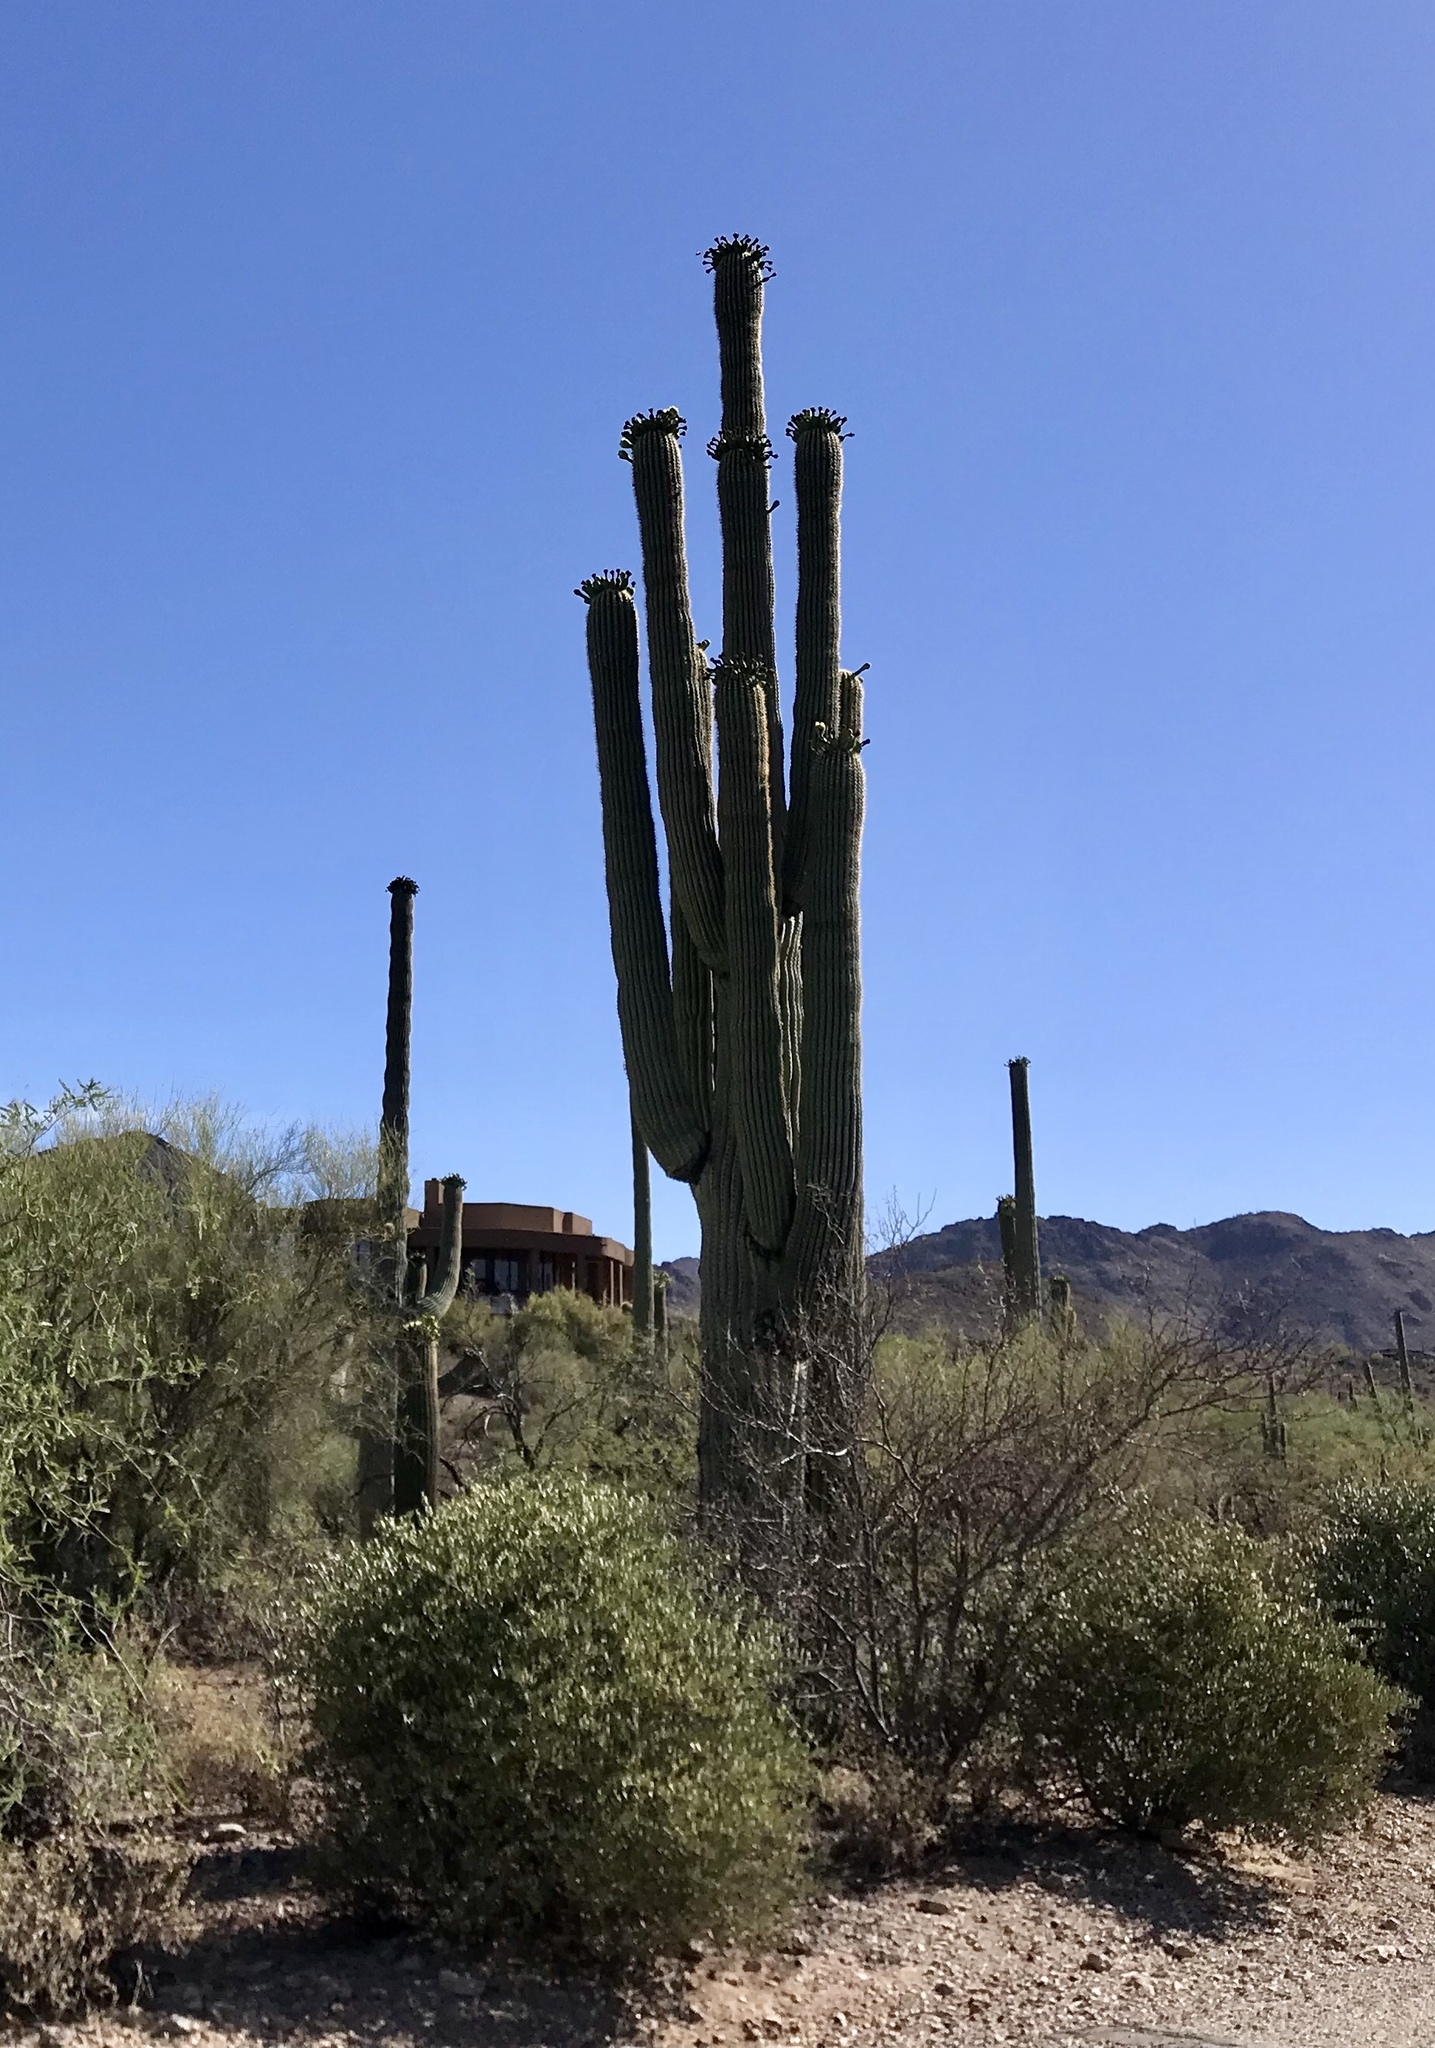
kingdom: Plantae
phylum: Tracheophyta
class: Magnoliopsida
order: Caryophyllales
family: Cactaceae
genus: Carnegiea
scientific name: Carnegiea gigantea
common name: Saguaro
